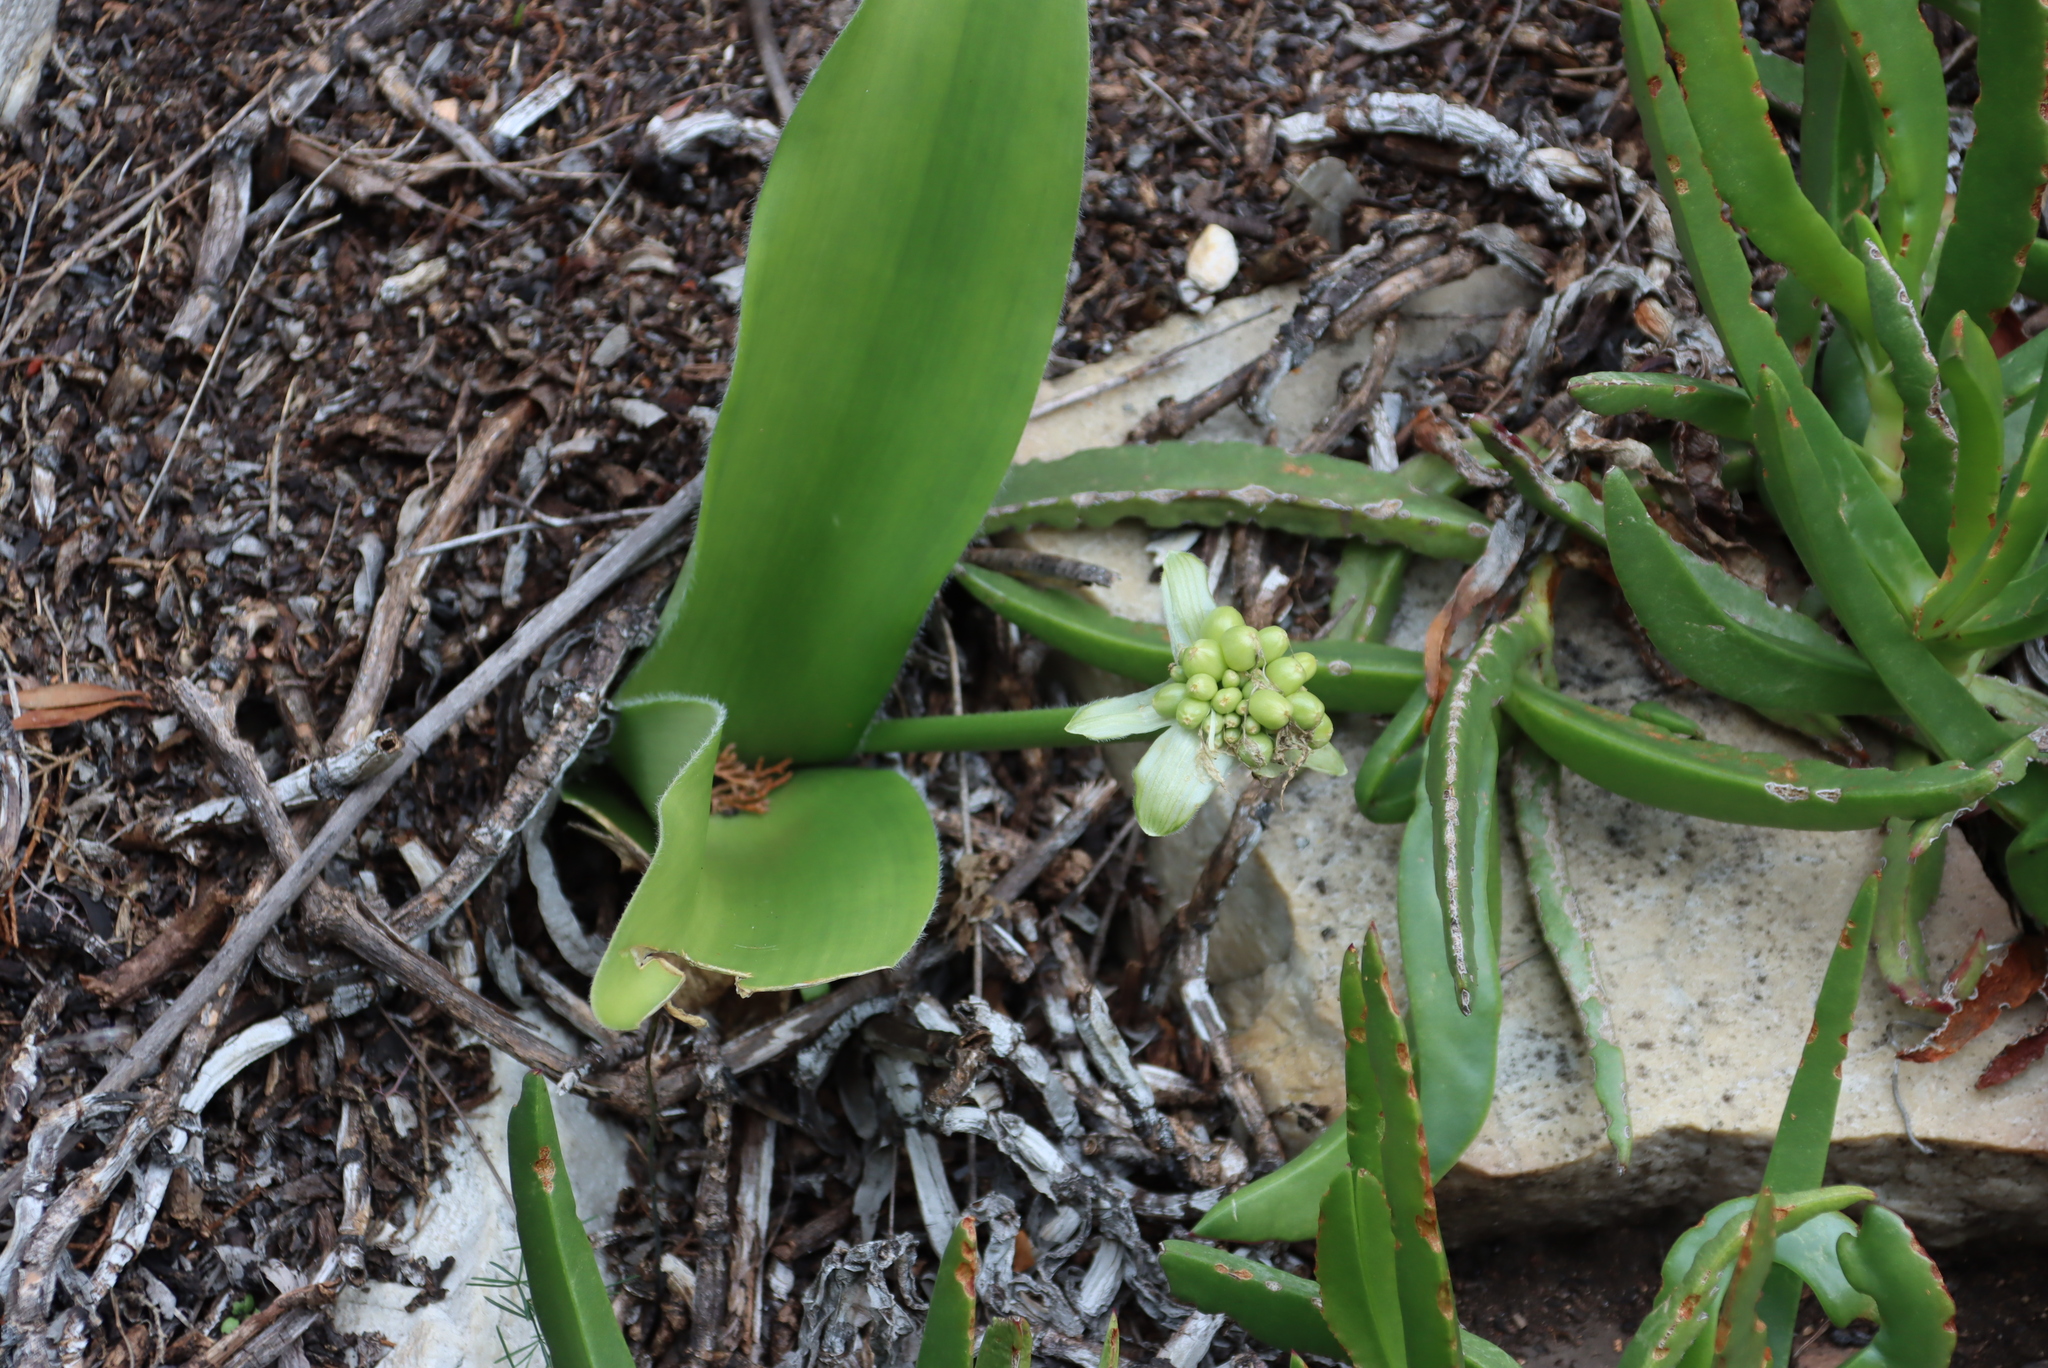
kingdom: Plantae
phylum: Tracheophyta
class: Liliopsida
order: Asparagales
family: Amaryllidaceae
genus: Haemanthus
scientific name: Haemanthus albiflos
